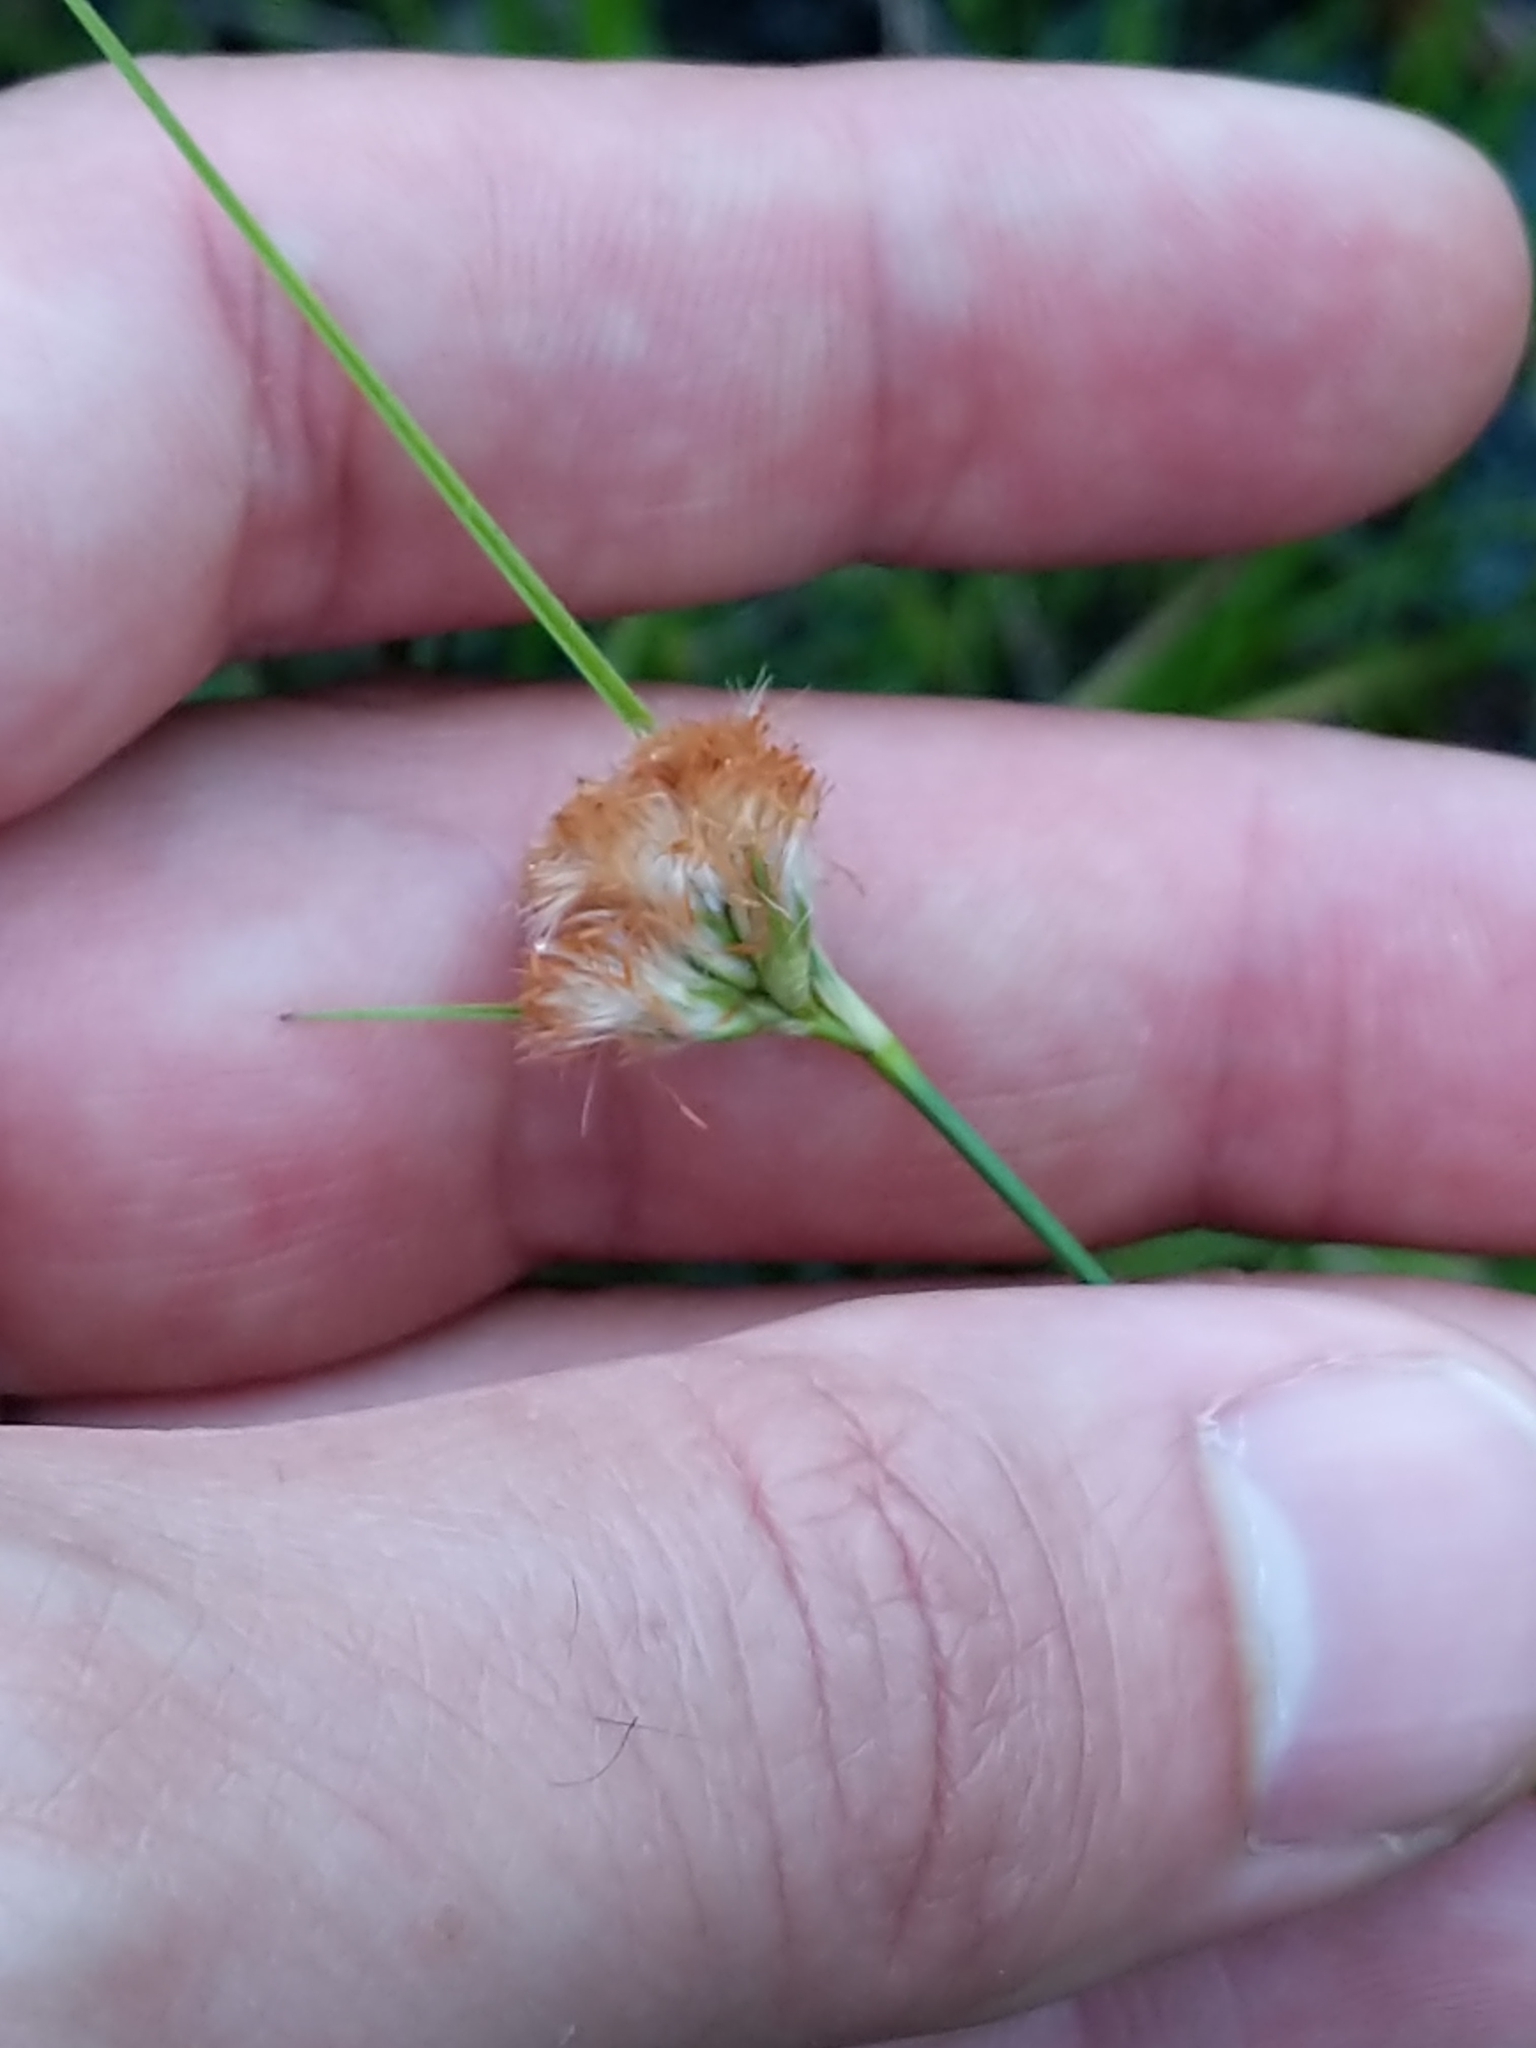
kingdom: Plantae
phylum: Tracheophyta
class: Liliopsida
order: Poales
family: Cyperaceae
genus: Eriophorum
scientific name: Eriophorum virginicum
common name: Tawny cottongrass
